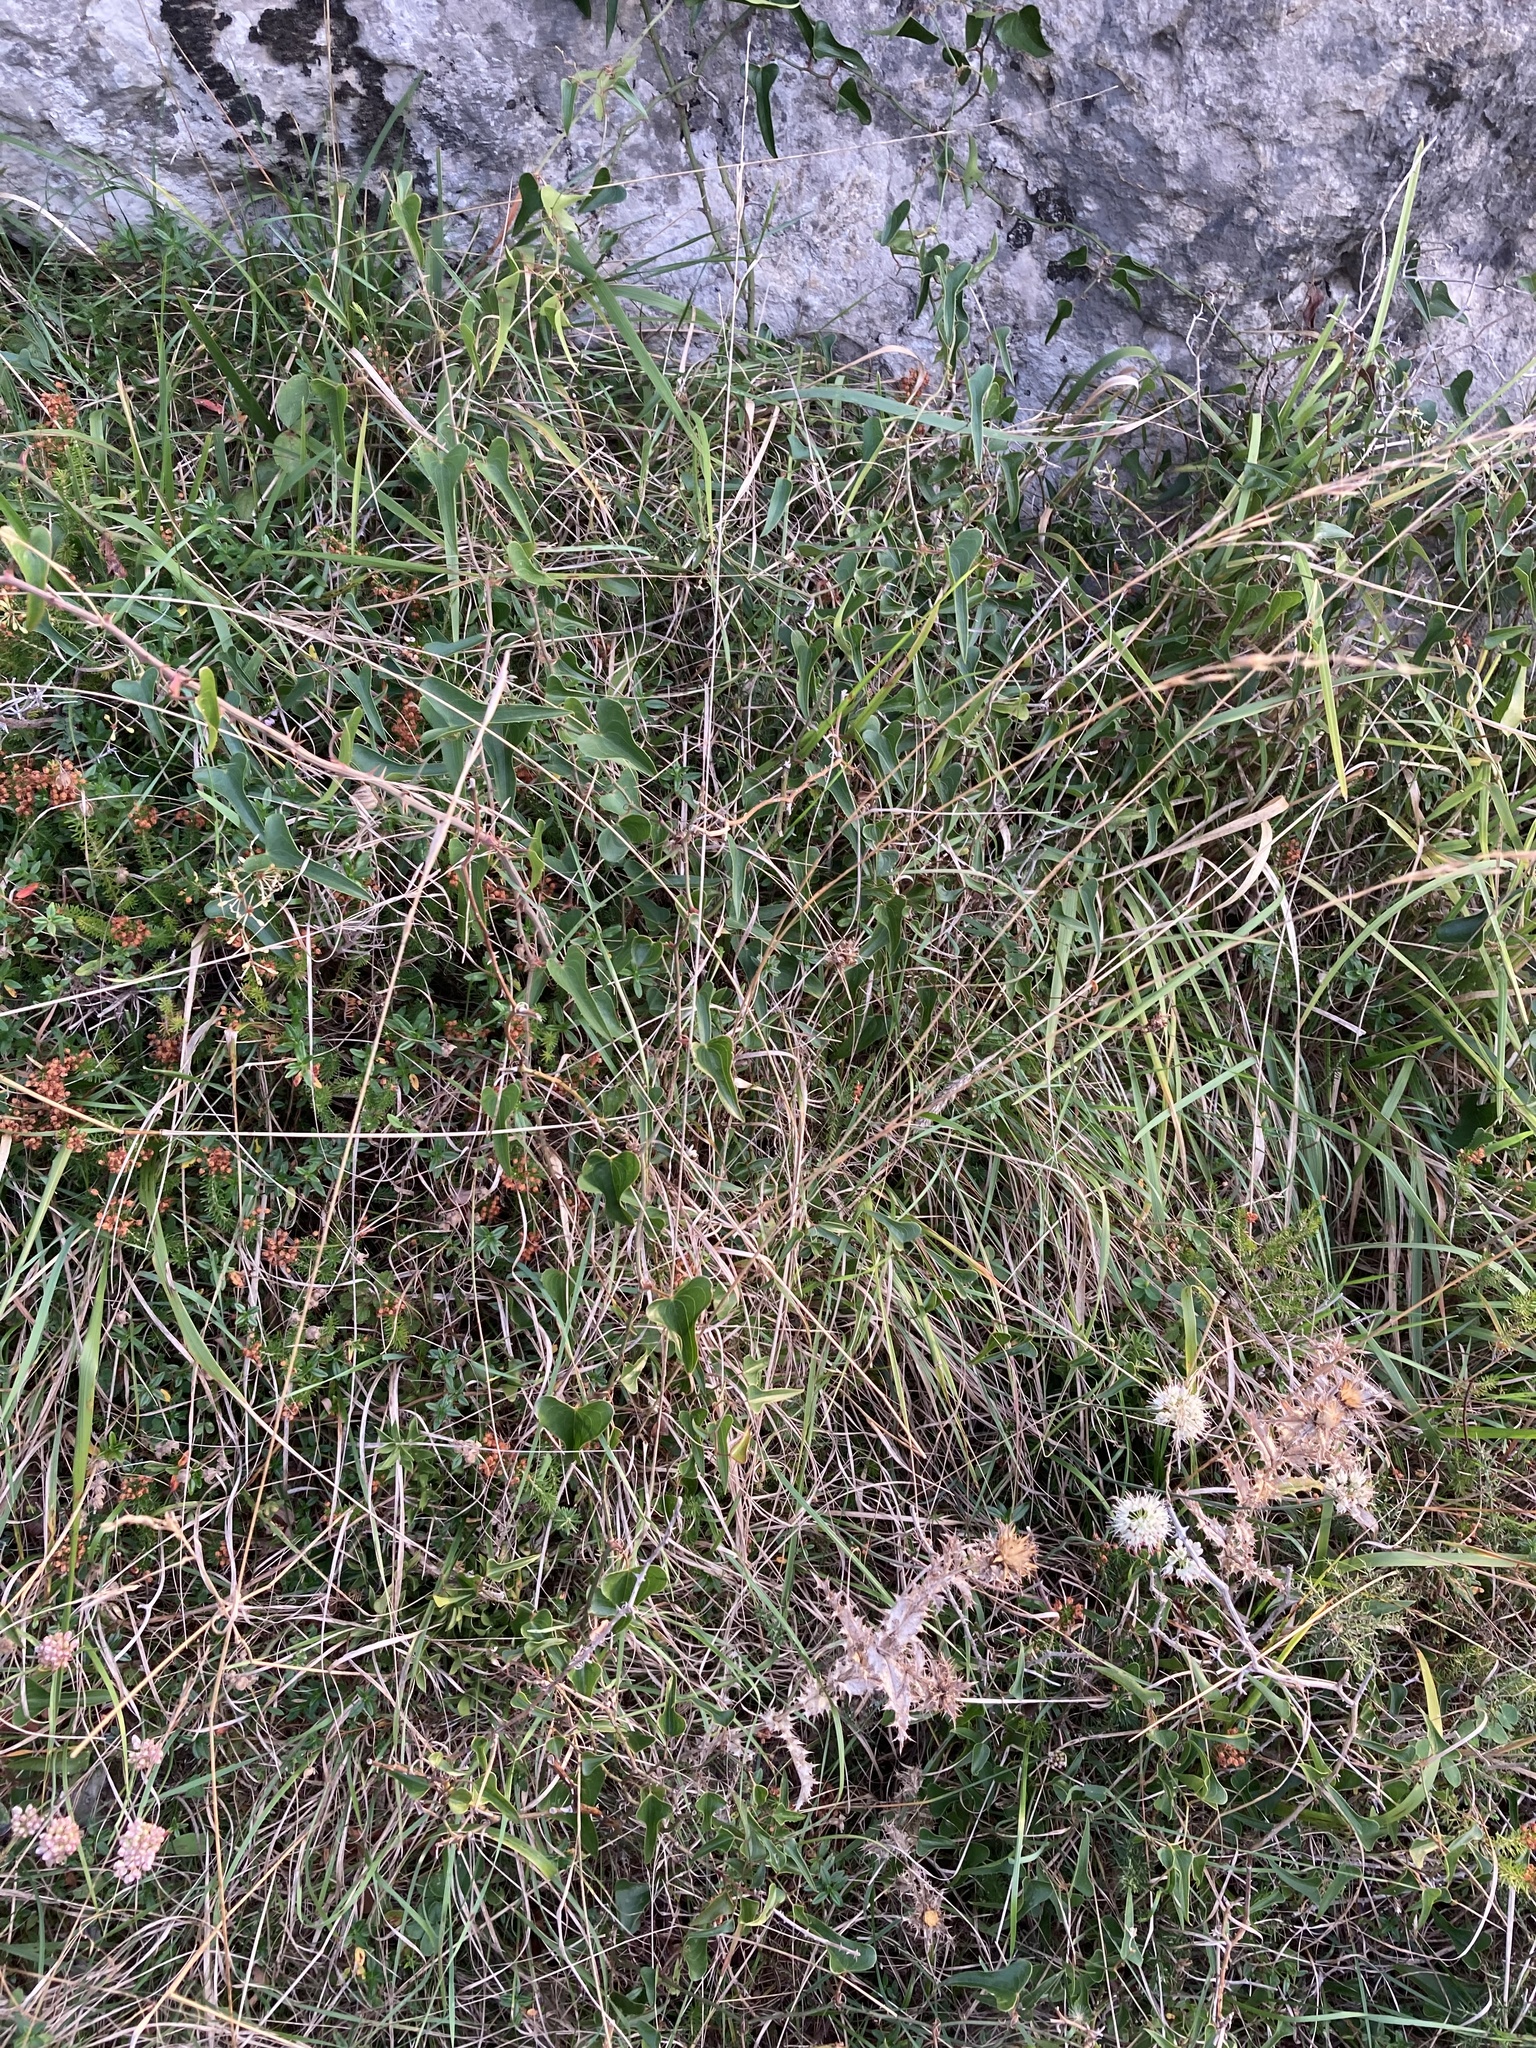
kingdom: Plantae
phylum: Tracheophyta
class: Liliopsida
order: Liliales
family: Smilacaceae
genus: Smilax
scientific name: Smilax aspera
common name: Common smilax
